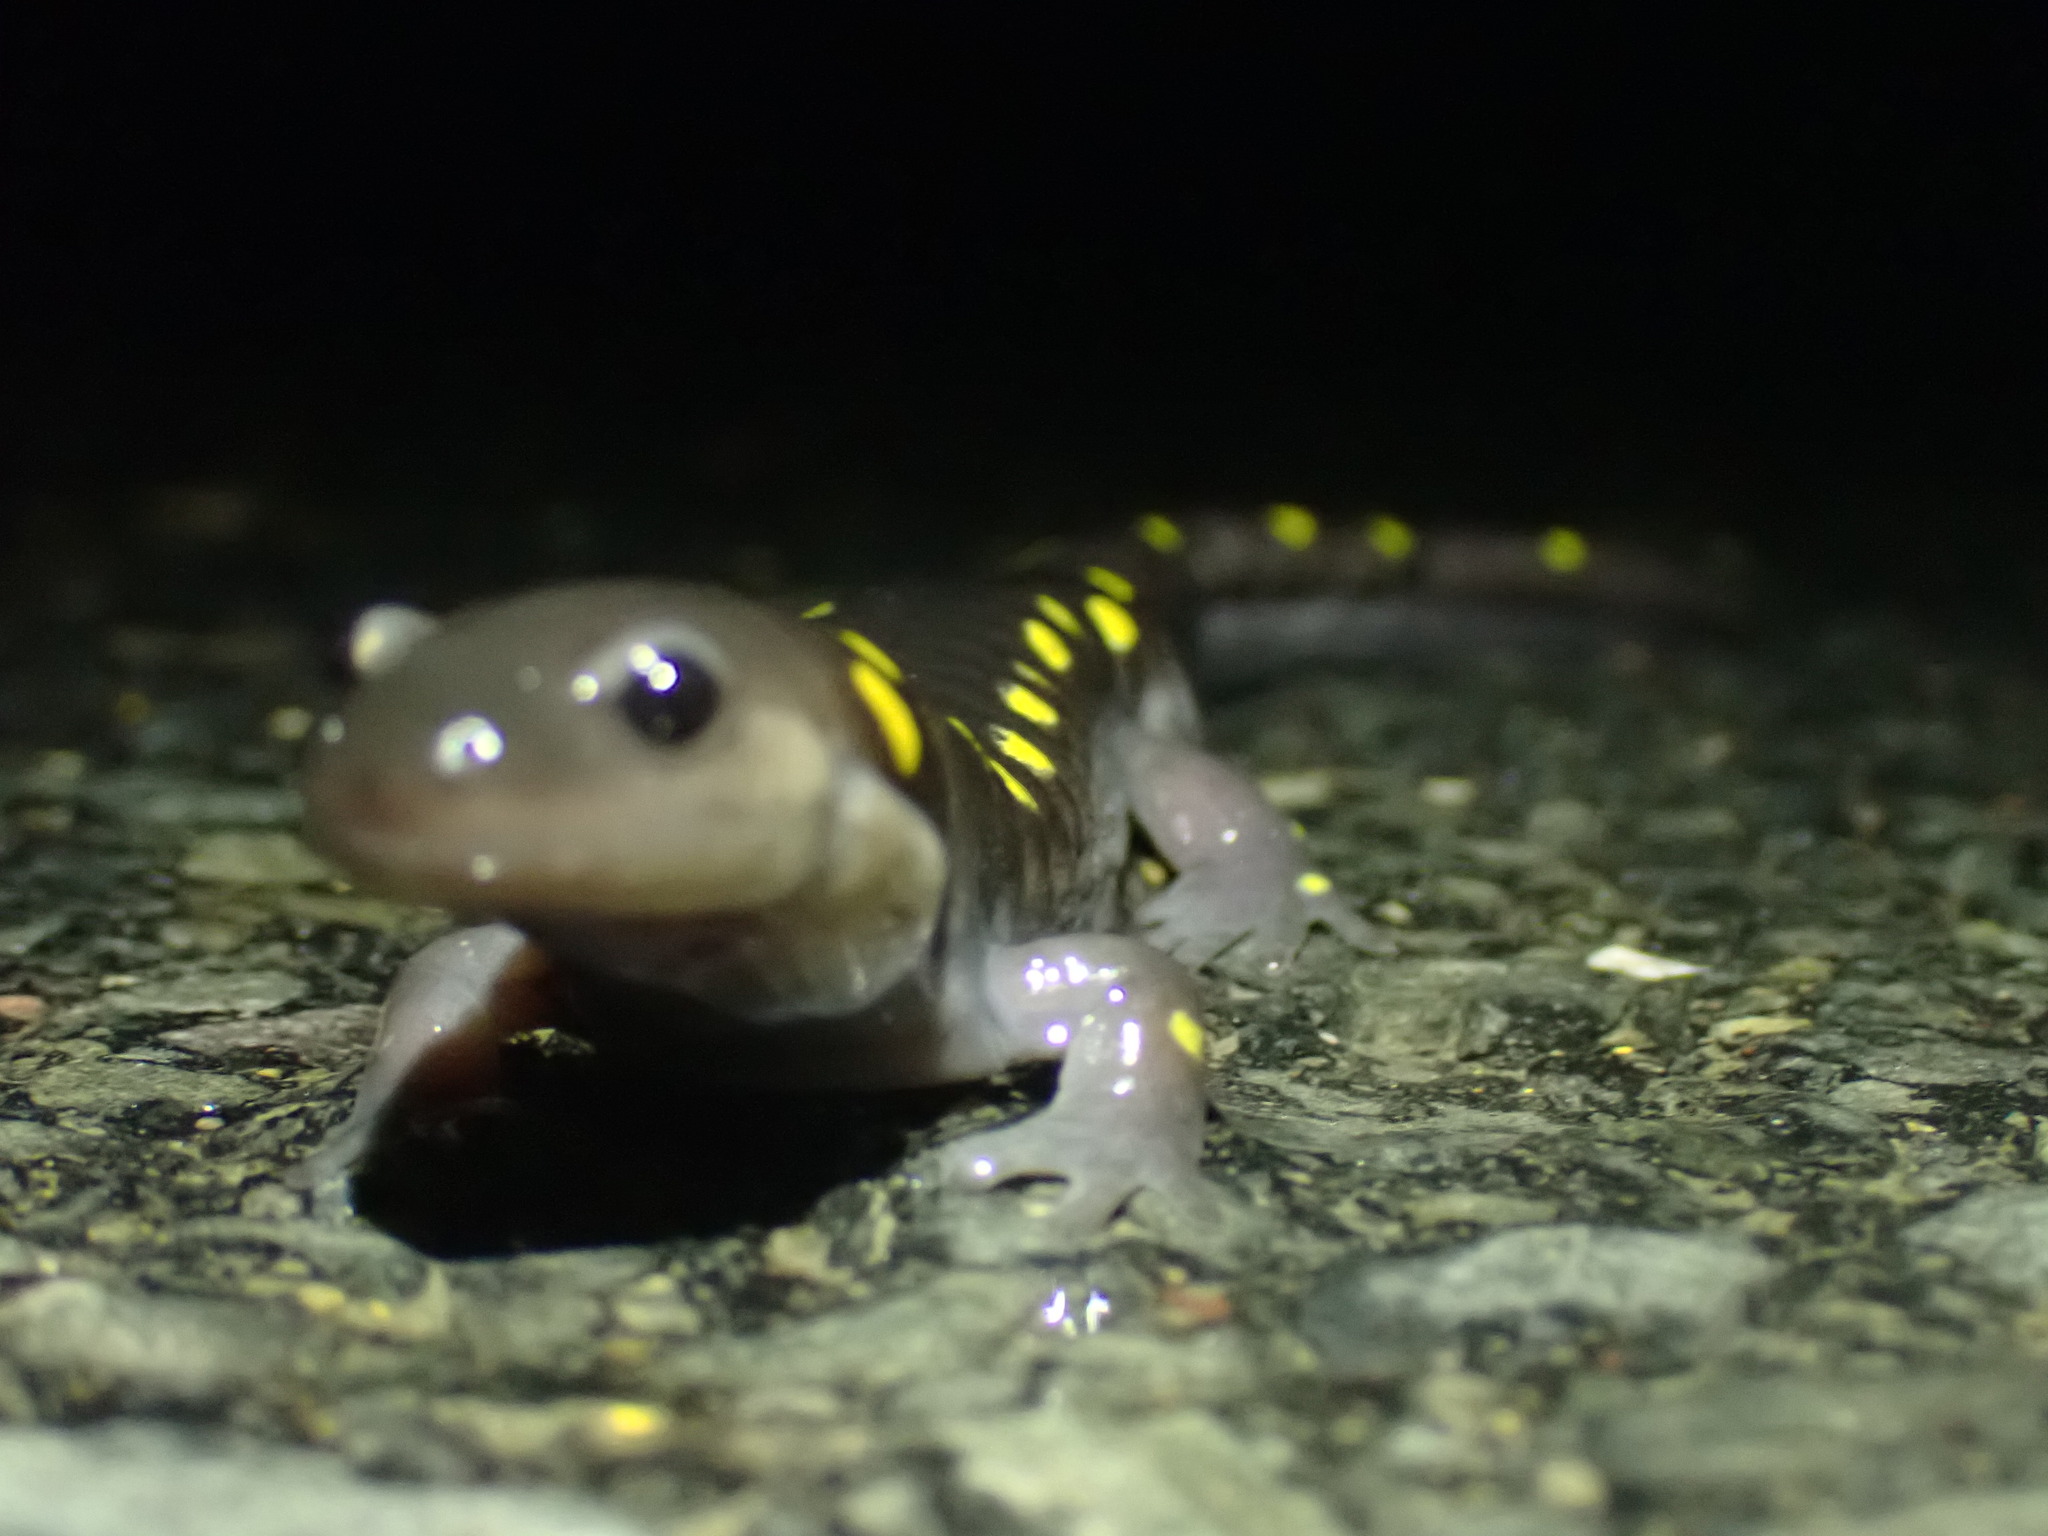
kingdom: Animalia
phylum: Chordata
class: Amphibia
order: Caudata
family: Ambystomatidae
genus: Ambystoma
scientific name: Ambystoma maculatum
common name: Spotted salamander
